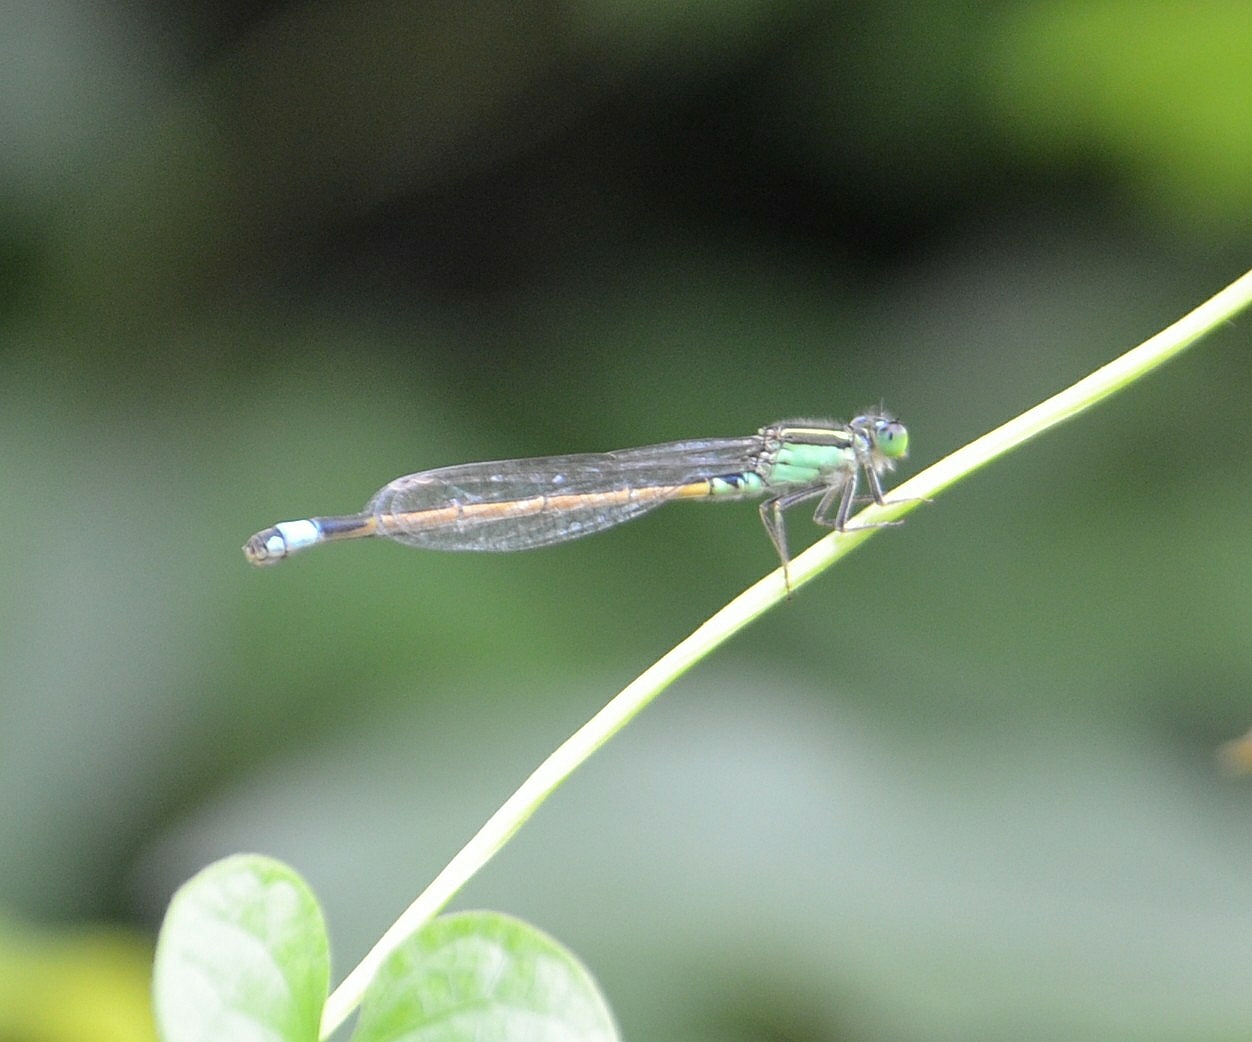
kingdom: Animalia
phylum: Arthropoda
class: Insecta
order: Odonata
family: Coenagrionidae
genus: Ischnura
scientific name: Ischnura senegalensis
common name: Tropical bluetail
